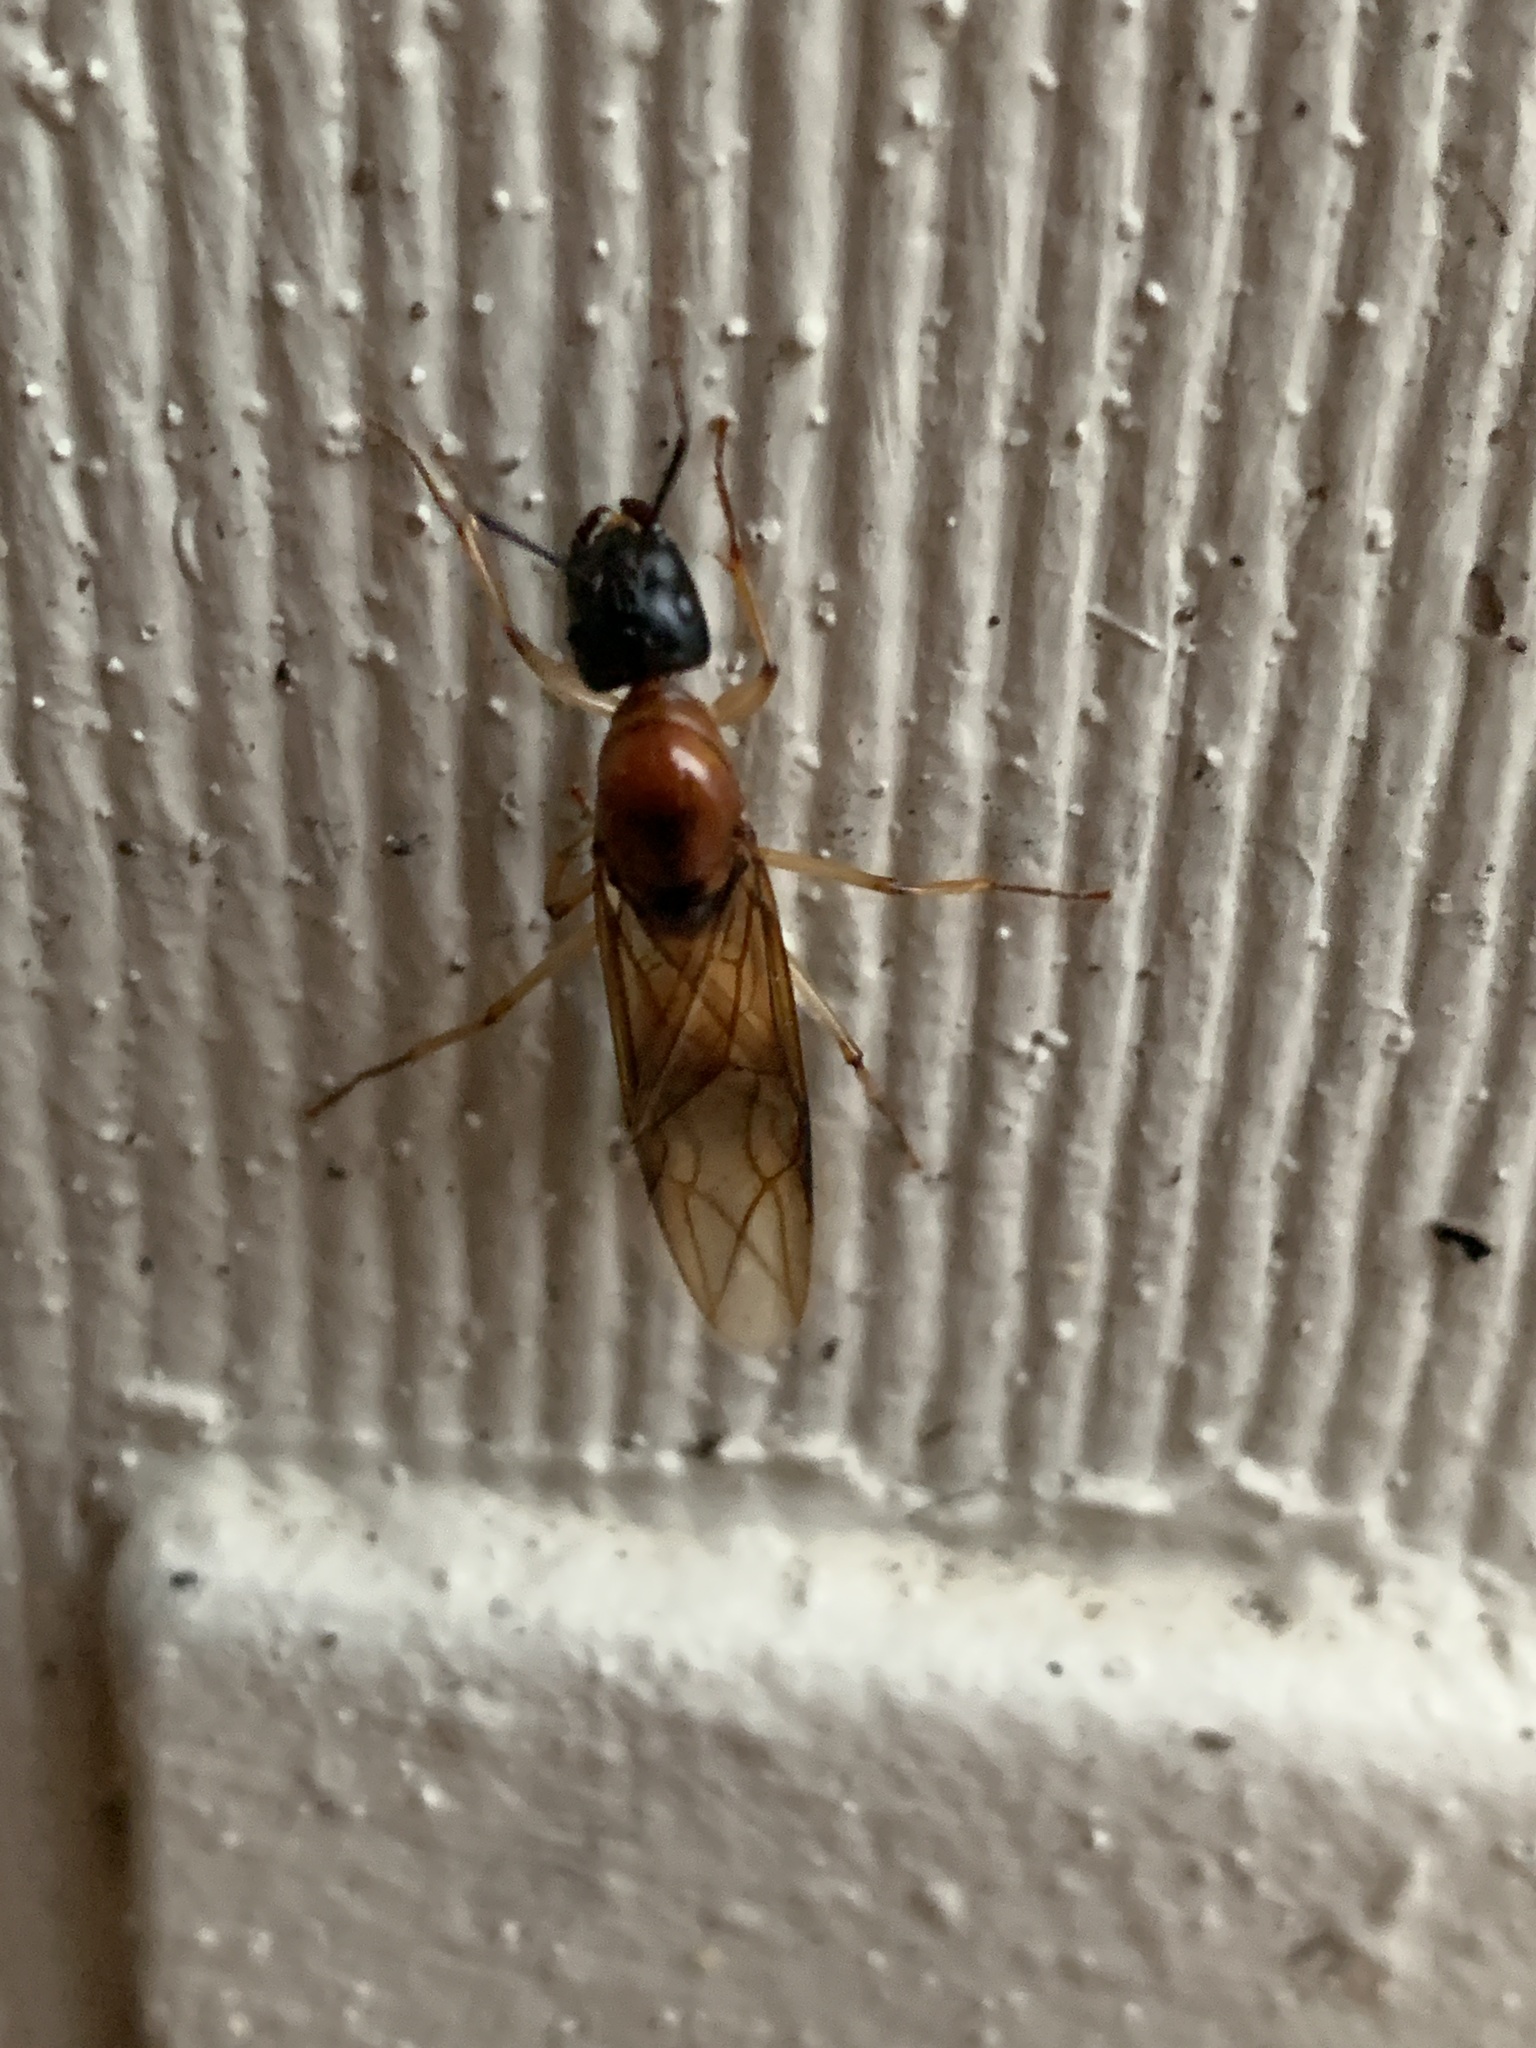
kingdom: Animalia
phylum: Arthropoda
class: Insecta
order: Hymenoptera
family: Formicidae
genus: Camponotus
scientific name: Camponotus consobrinus
